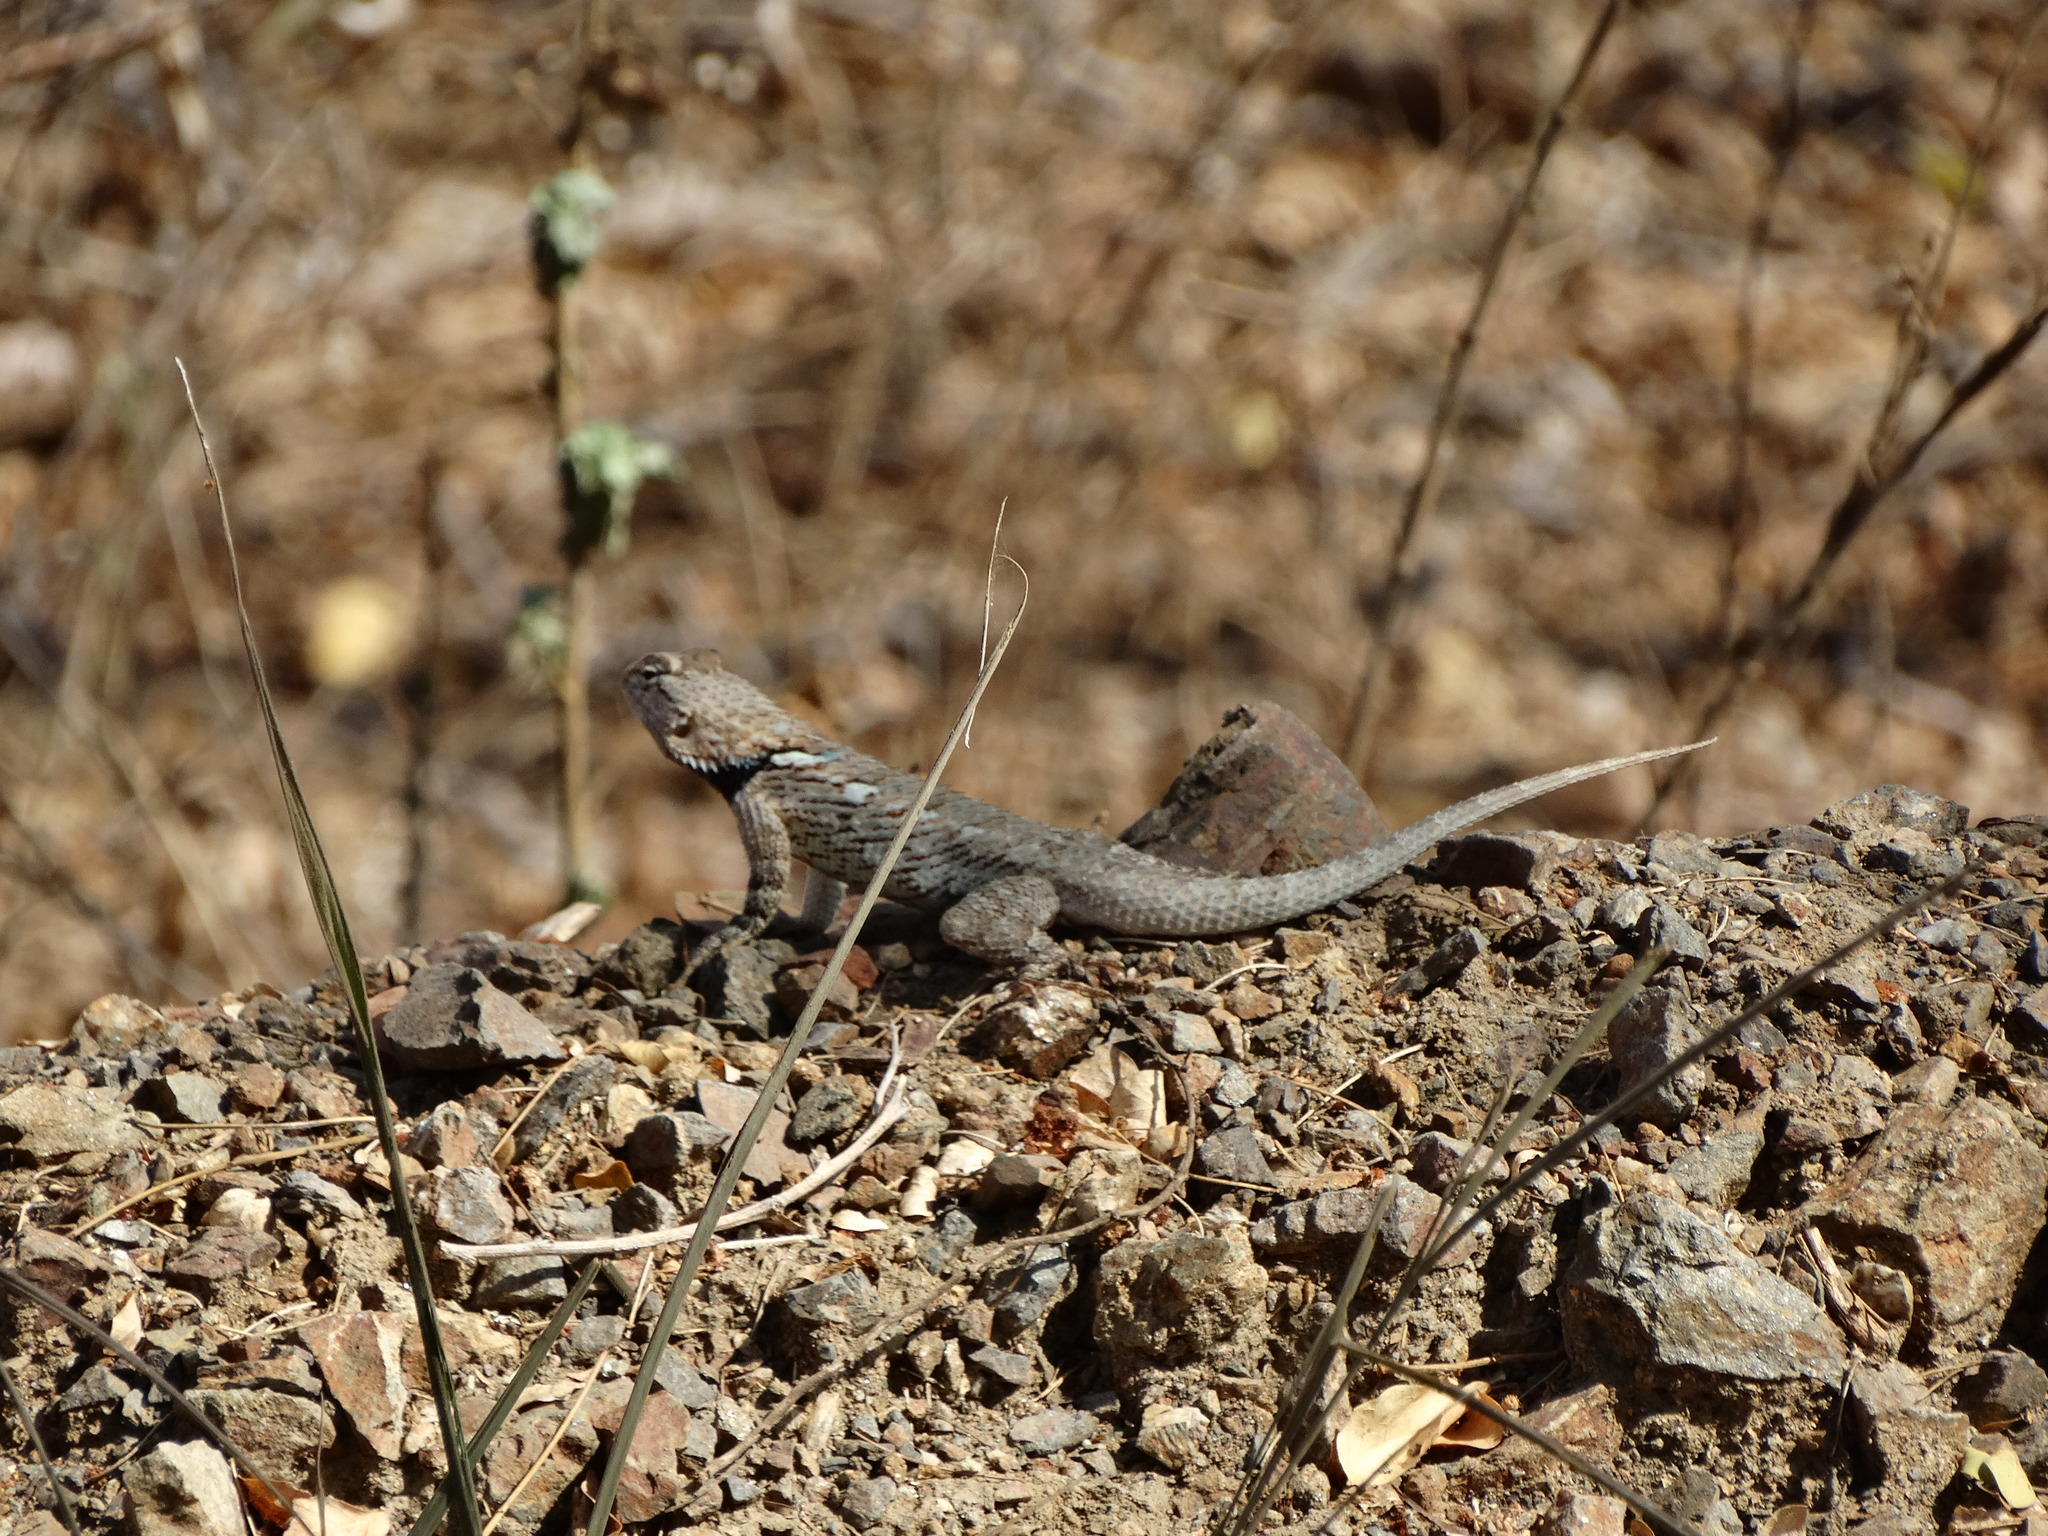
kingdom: Animalia
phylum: Chordata
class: Squamata
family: Phrynosomatidae
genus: Sceloporus
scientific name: Sceloporus clarkii
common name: Clark's spiny lizard
